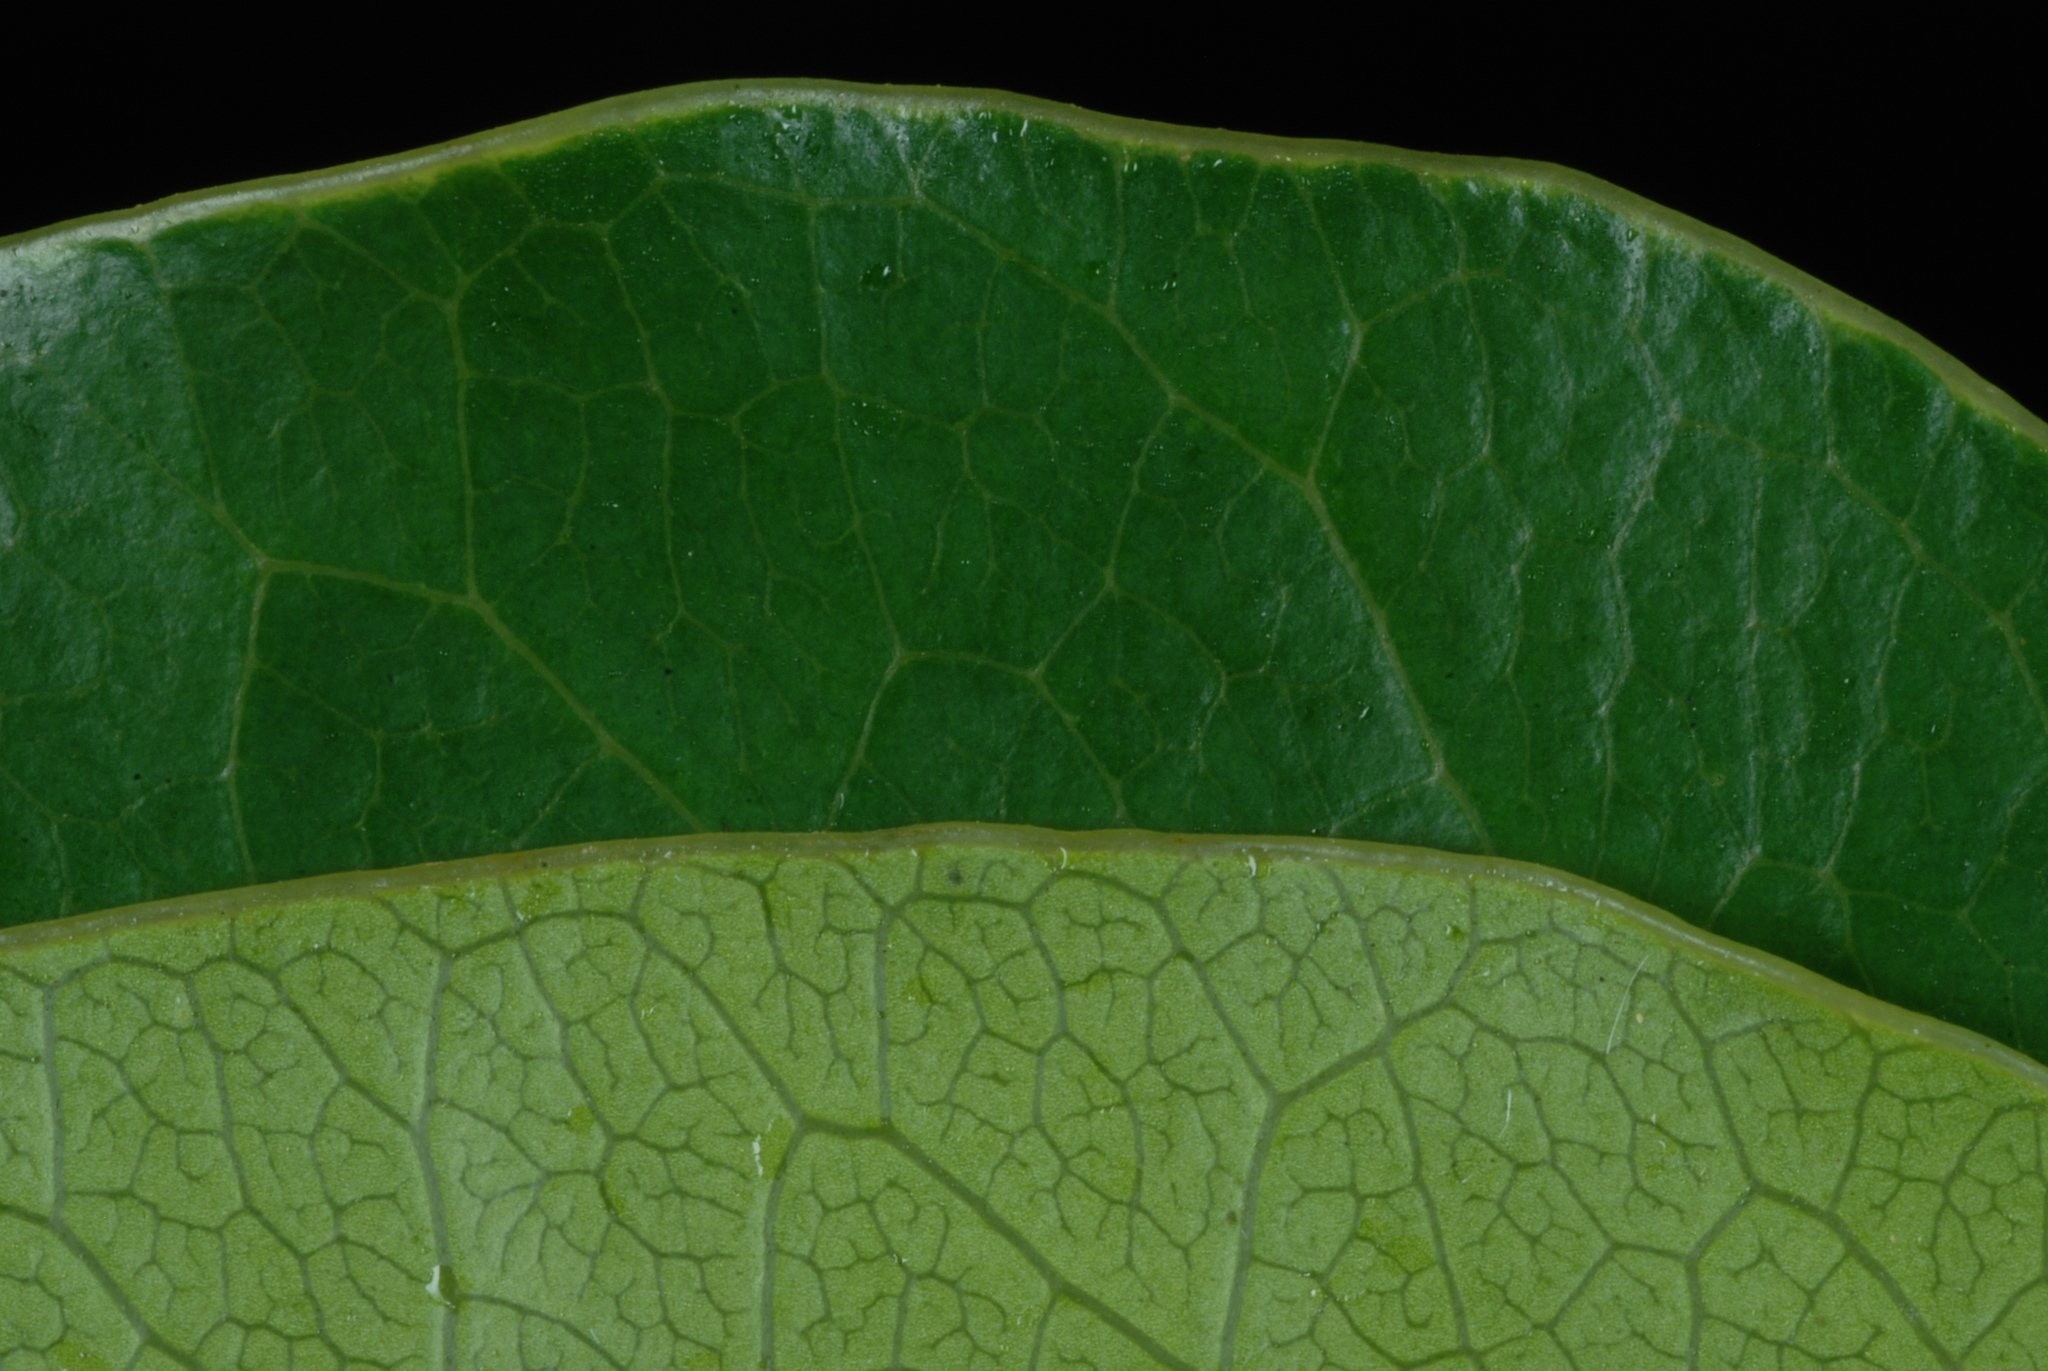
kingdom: Plantae
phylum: Tracheophyta
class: Magnoliopsida
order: Sapindales
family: Anacardiaceae
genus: Metopium
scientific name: Metopium toxiferum
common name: Florida poisontree
